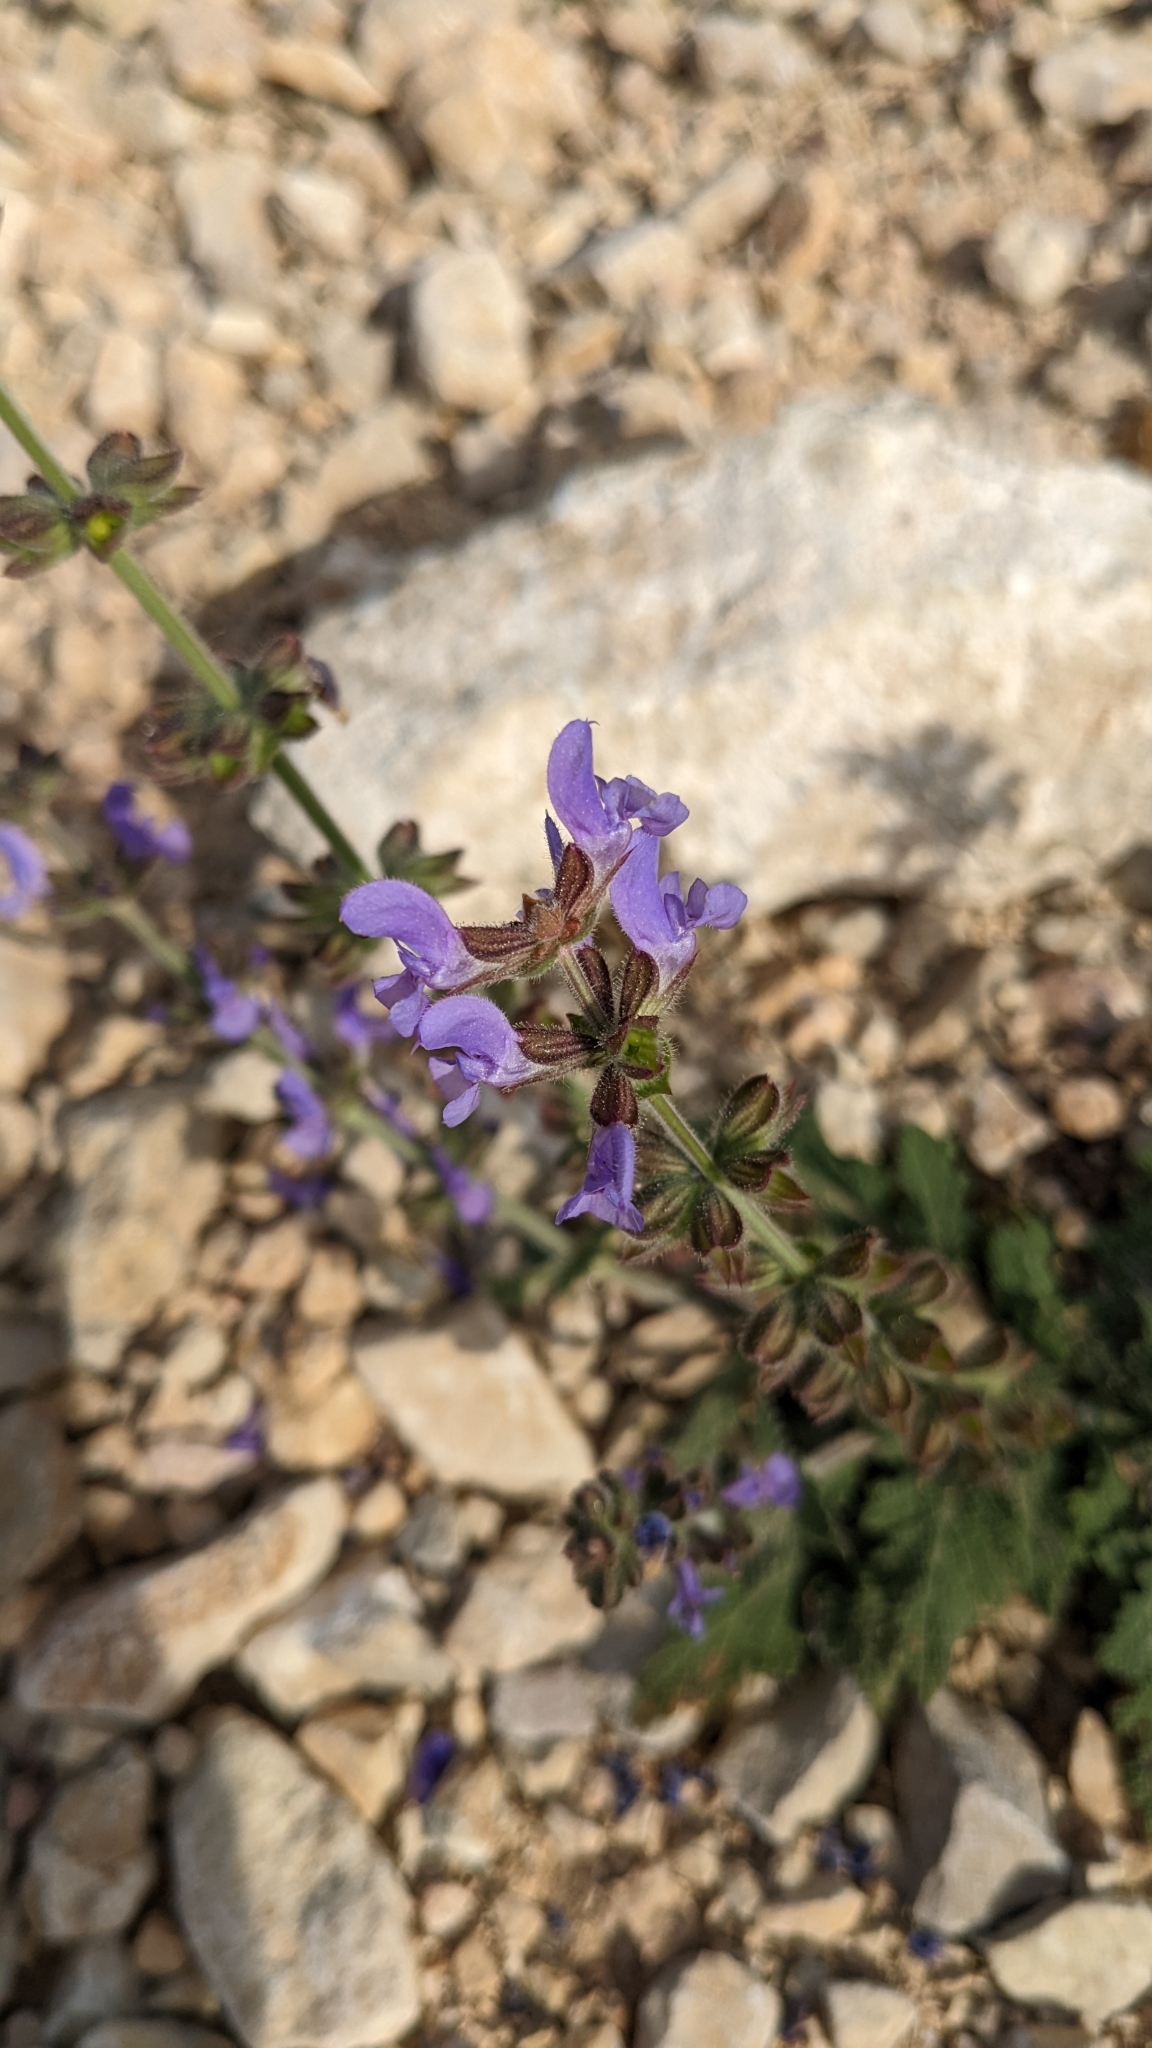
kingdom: Plantae
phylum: Tracheophyta
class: Magnoliopsida
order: Lamiales
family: Lamiaceae
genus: Salvia
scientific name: Salvia verbenaca
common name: Wild clary
